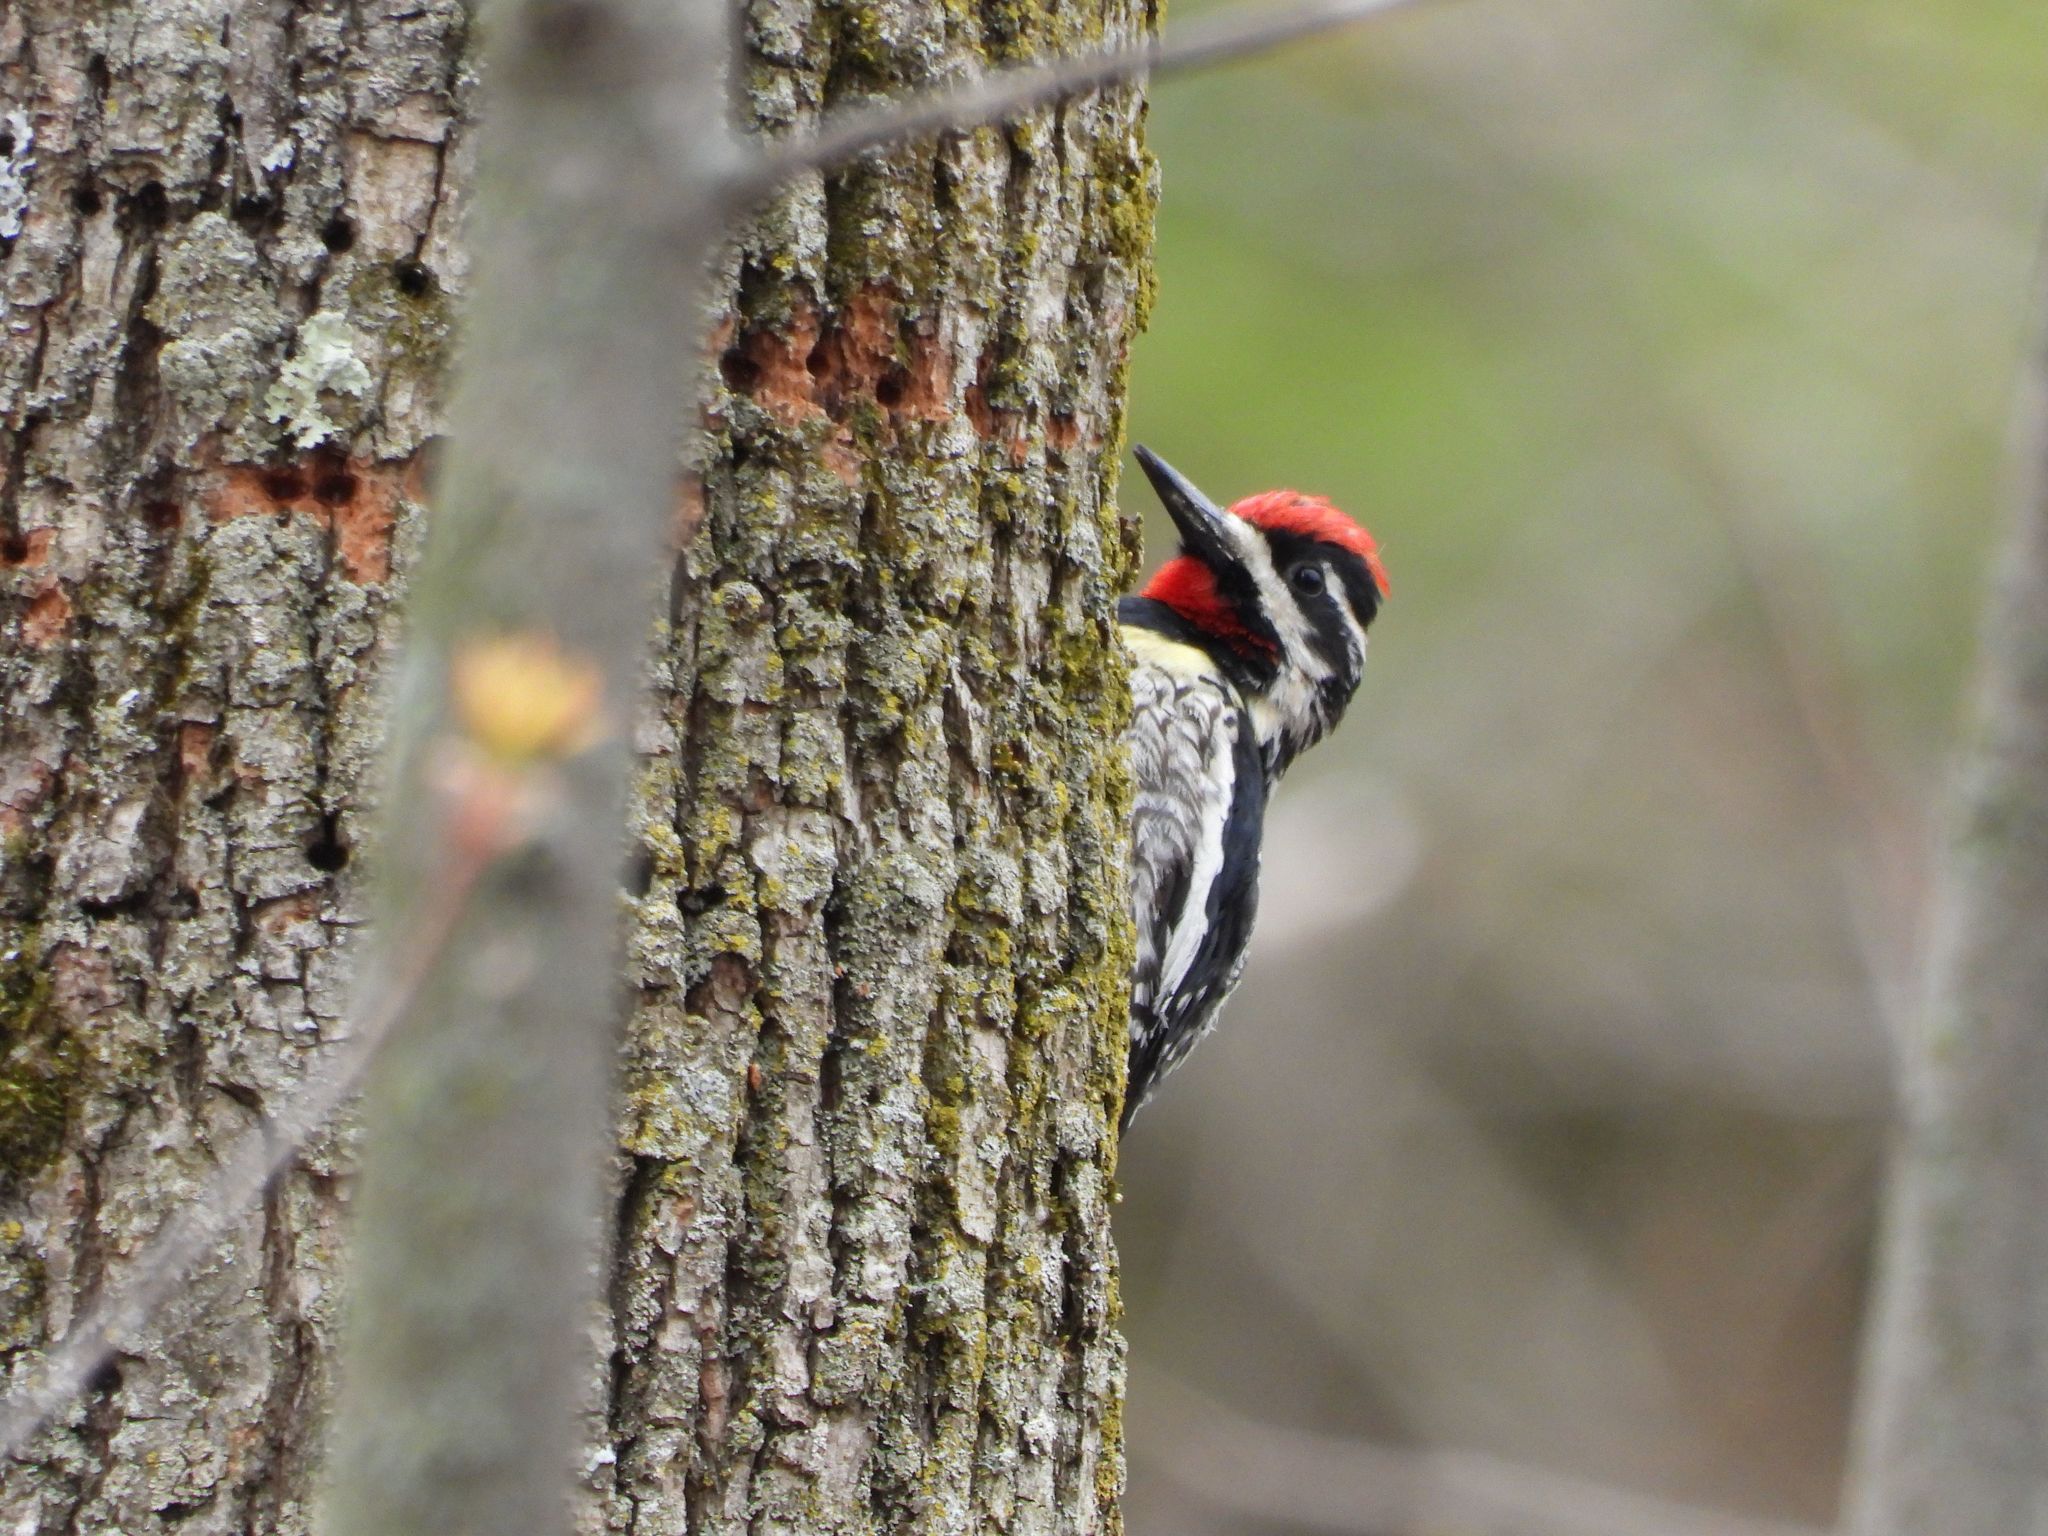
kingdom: Animalia
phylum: Chordata
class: Aves
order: Piciformes
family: Picidae
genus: Sphyrapicus
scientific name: Sphyrapicus varius
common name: Yellow-bellied sapsucker
